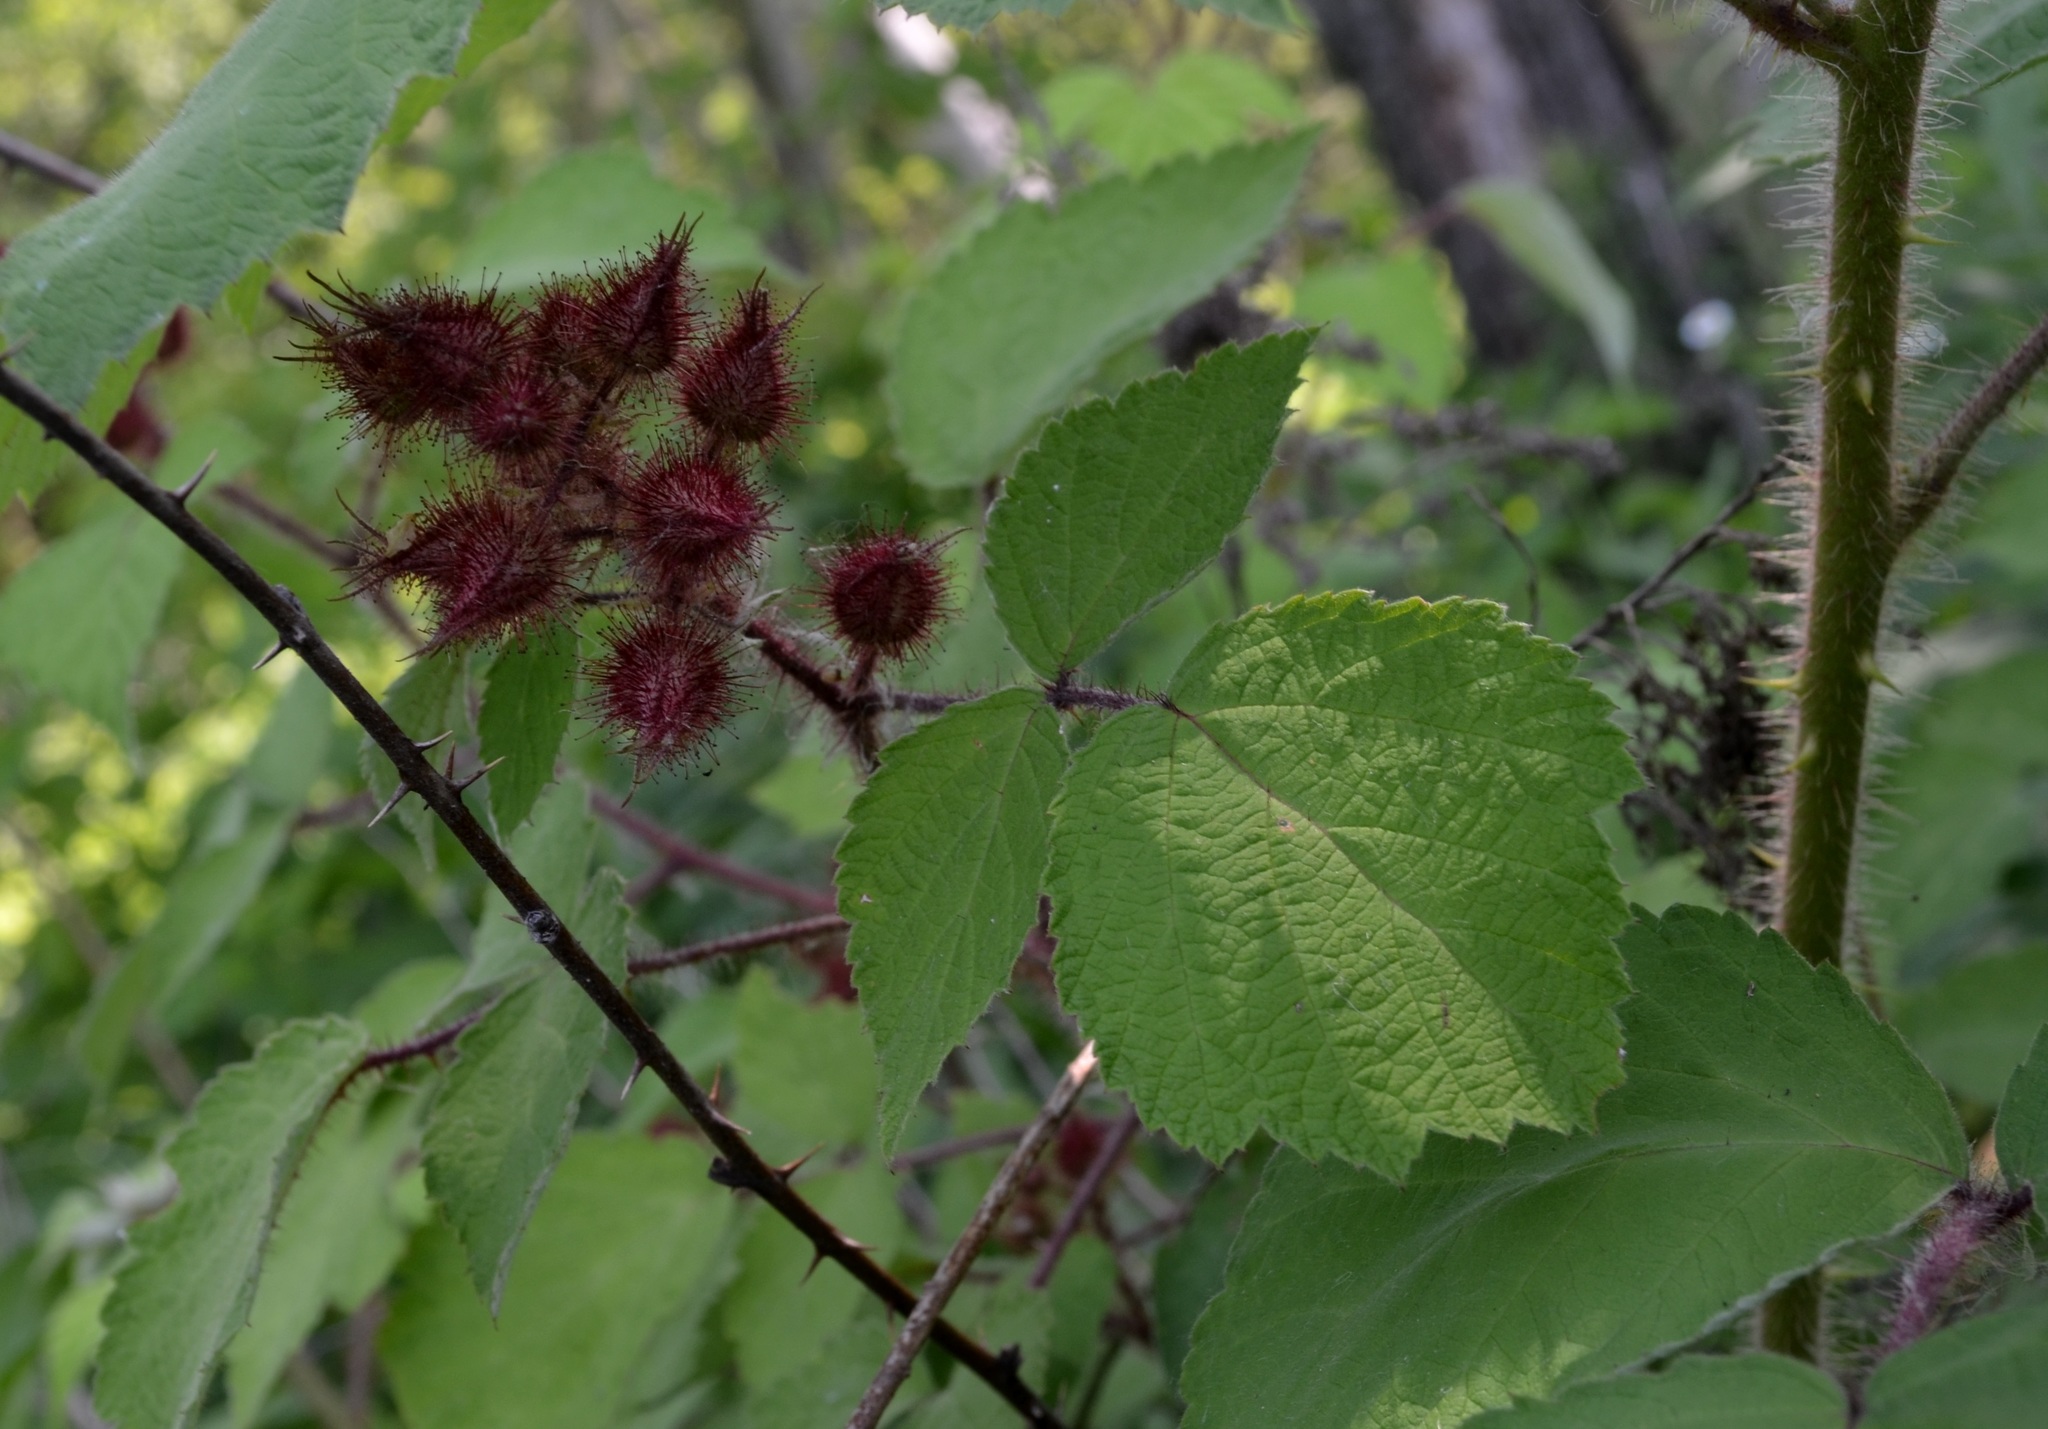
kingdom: Plantae
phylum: Tracheophyta
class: Magnoliopsida
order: Rosales
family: Rosaceae
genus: Rubus
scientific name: Rubus phoenicolasius
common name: Japanese wineberry
